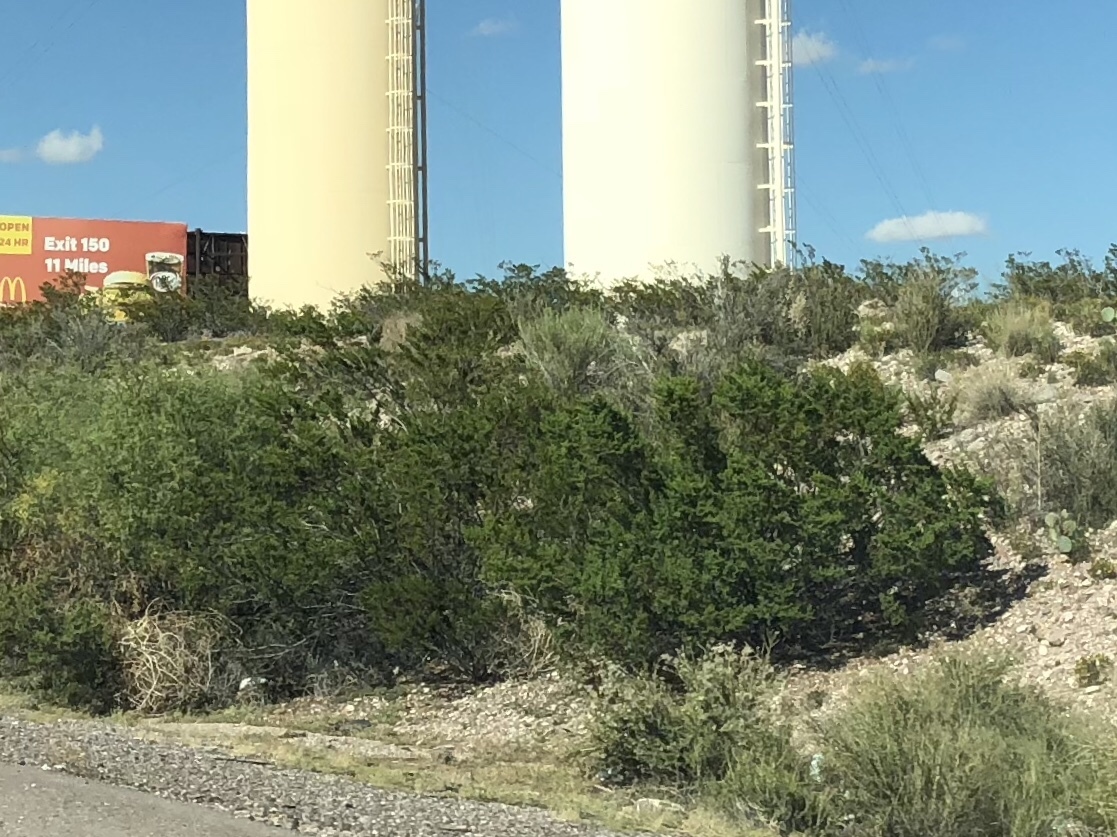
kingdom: Plantae
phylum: Tracheophyta
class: Magnoliopsida
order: Zygophyllales
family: Zygophyllaceae
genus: Larrea
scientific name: Larrea tridentata
